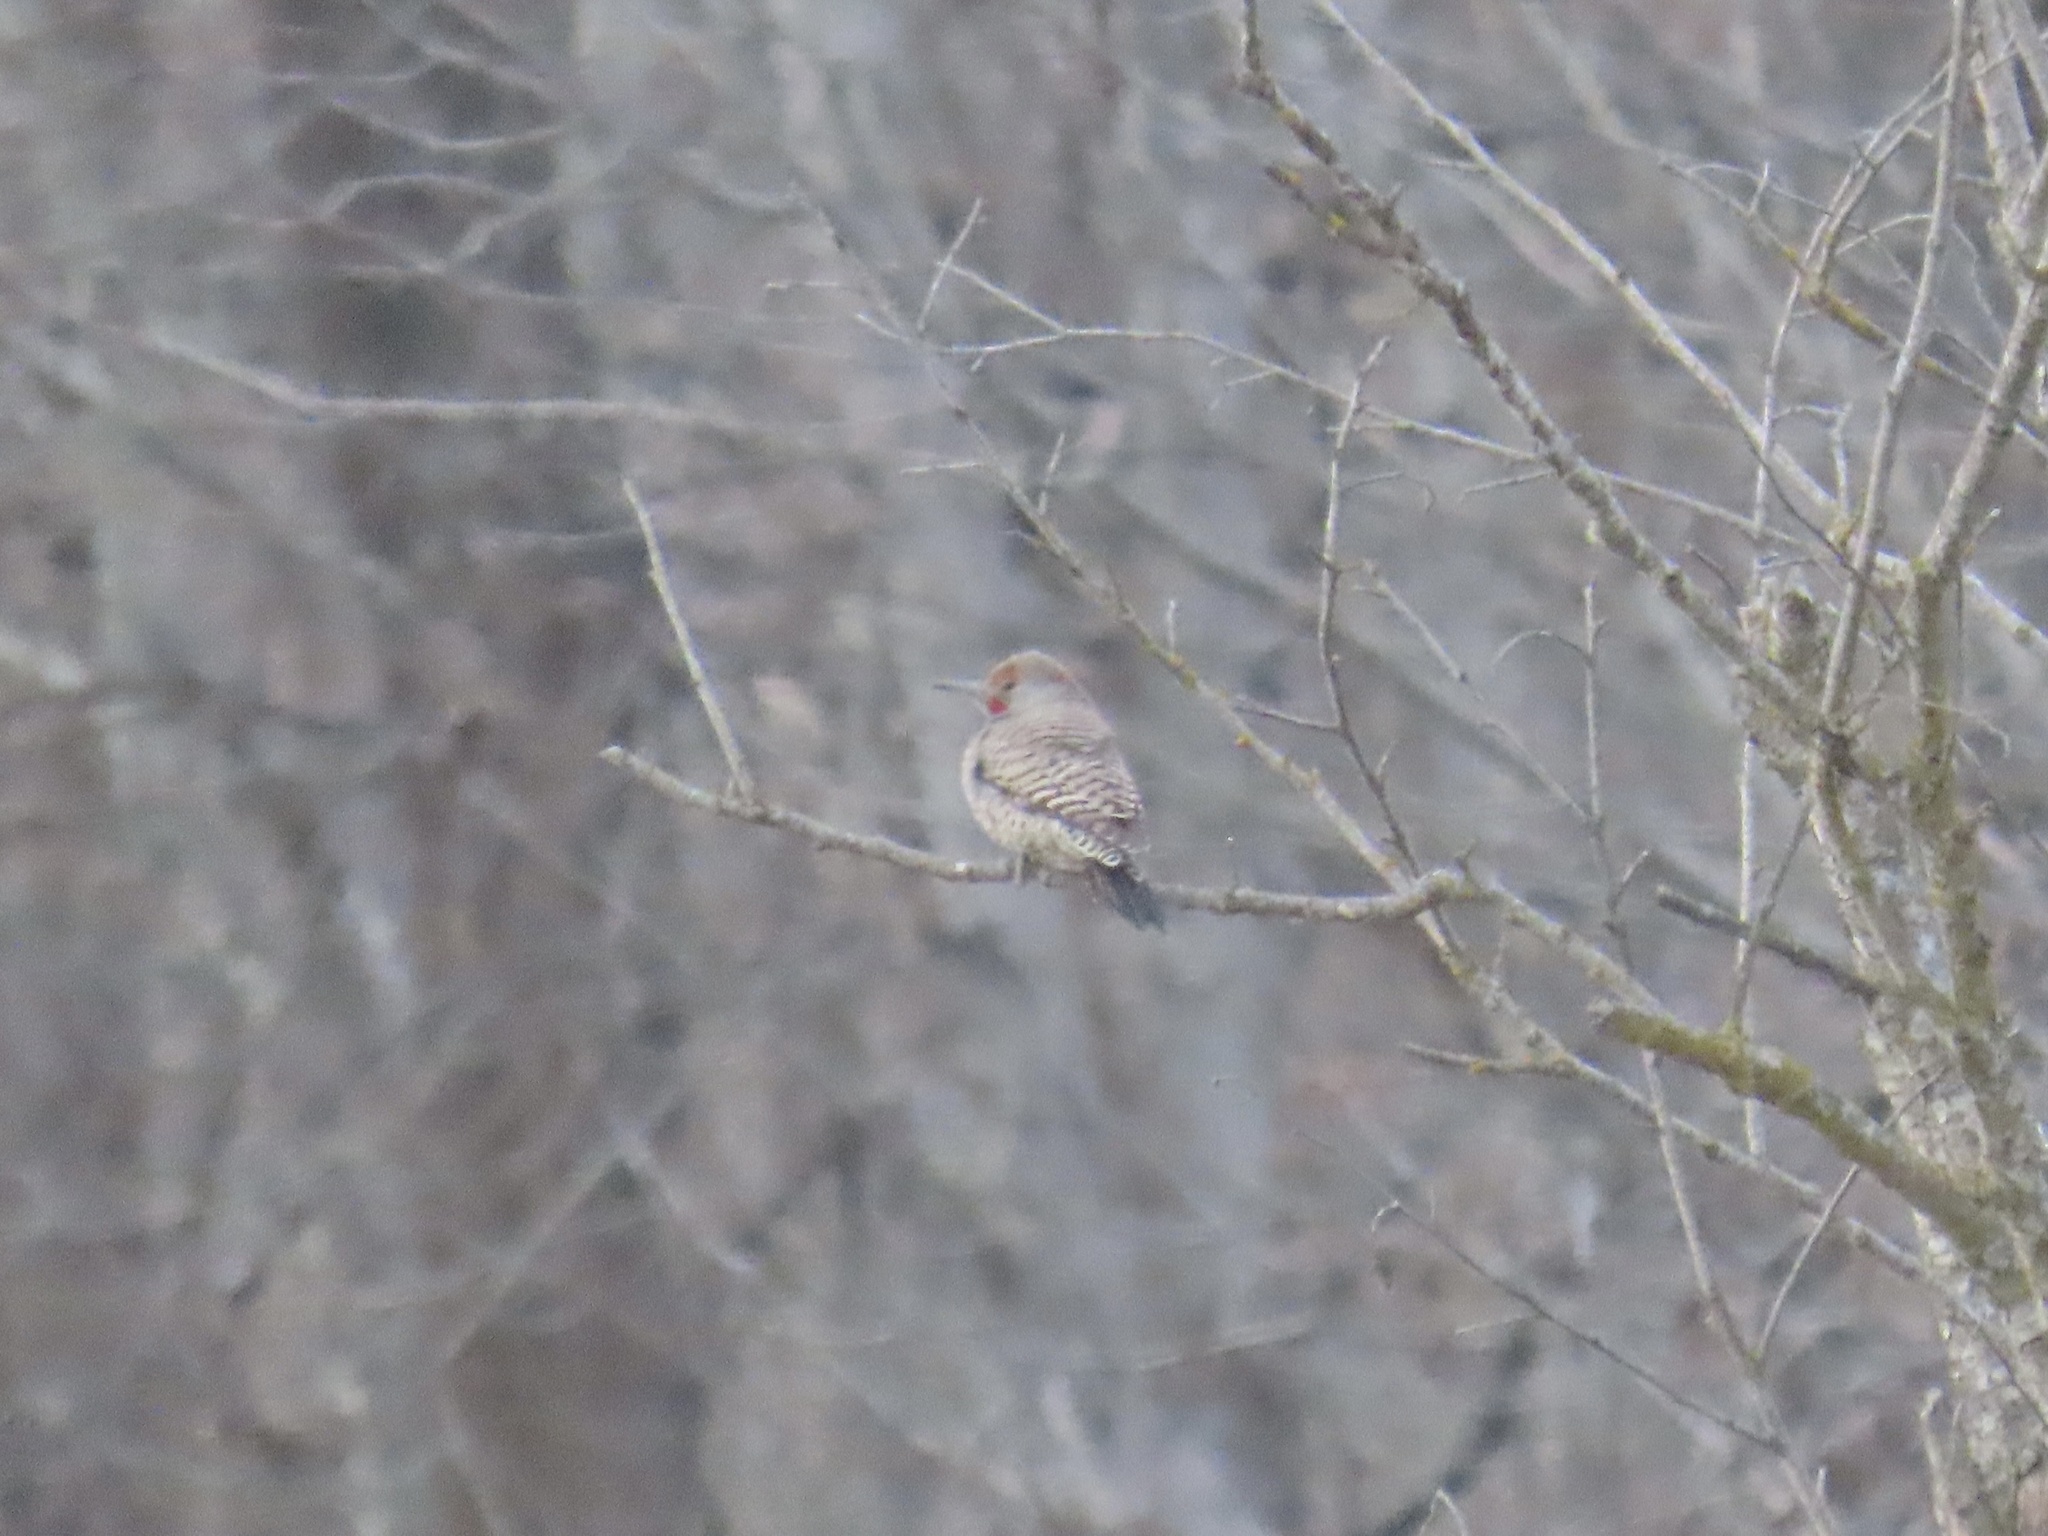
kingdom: Animalia
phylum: Chordata
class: Aves
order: Piciformes
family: Picidae
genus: Colaptes
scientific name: Colaptes auratus
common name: Northern flicker
